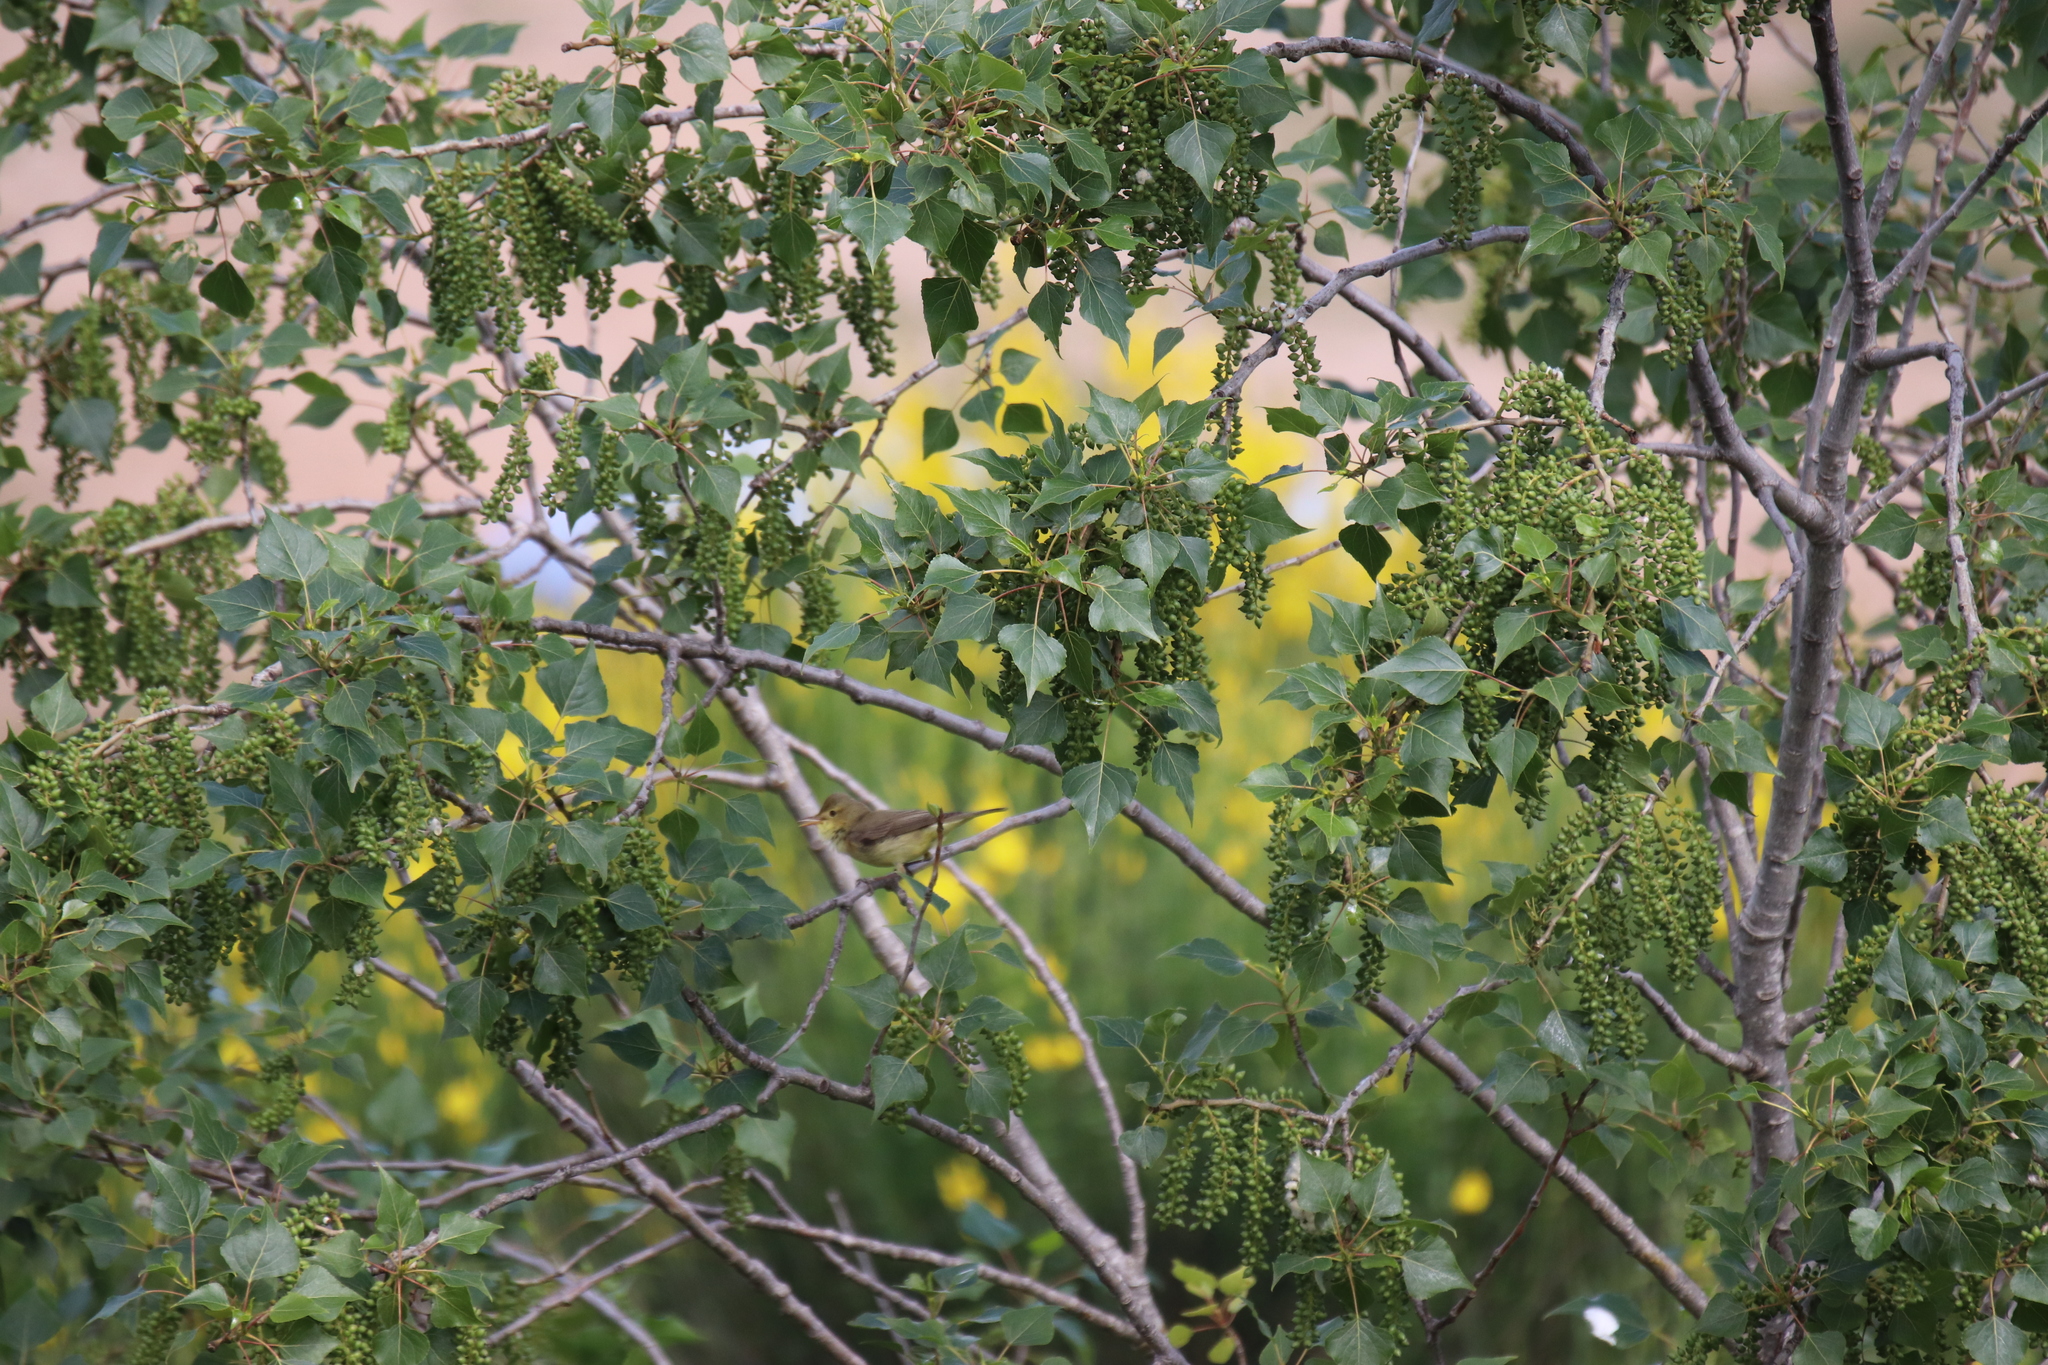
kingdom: Animalia
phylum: Chordata
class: Aves
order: Passeriformes
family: Acrocephalidae
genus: Hippolais
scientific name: Hippolais polyglotta
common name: Melodious warbler
